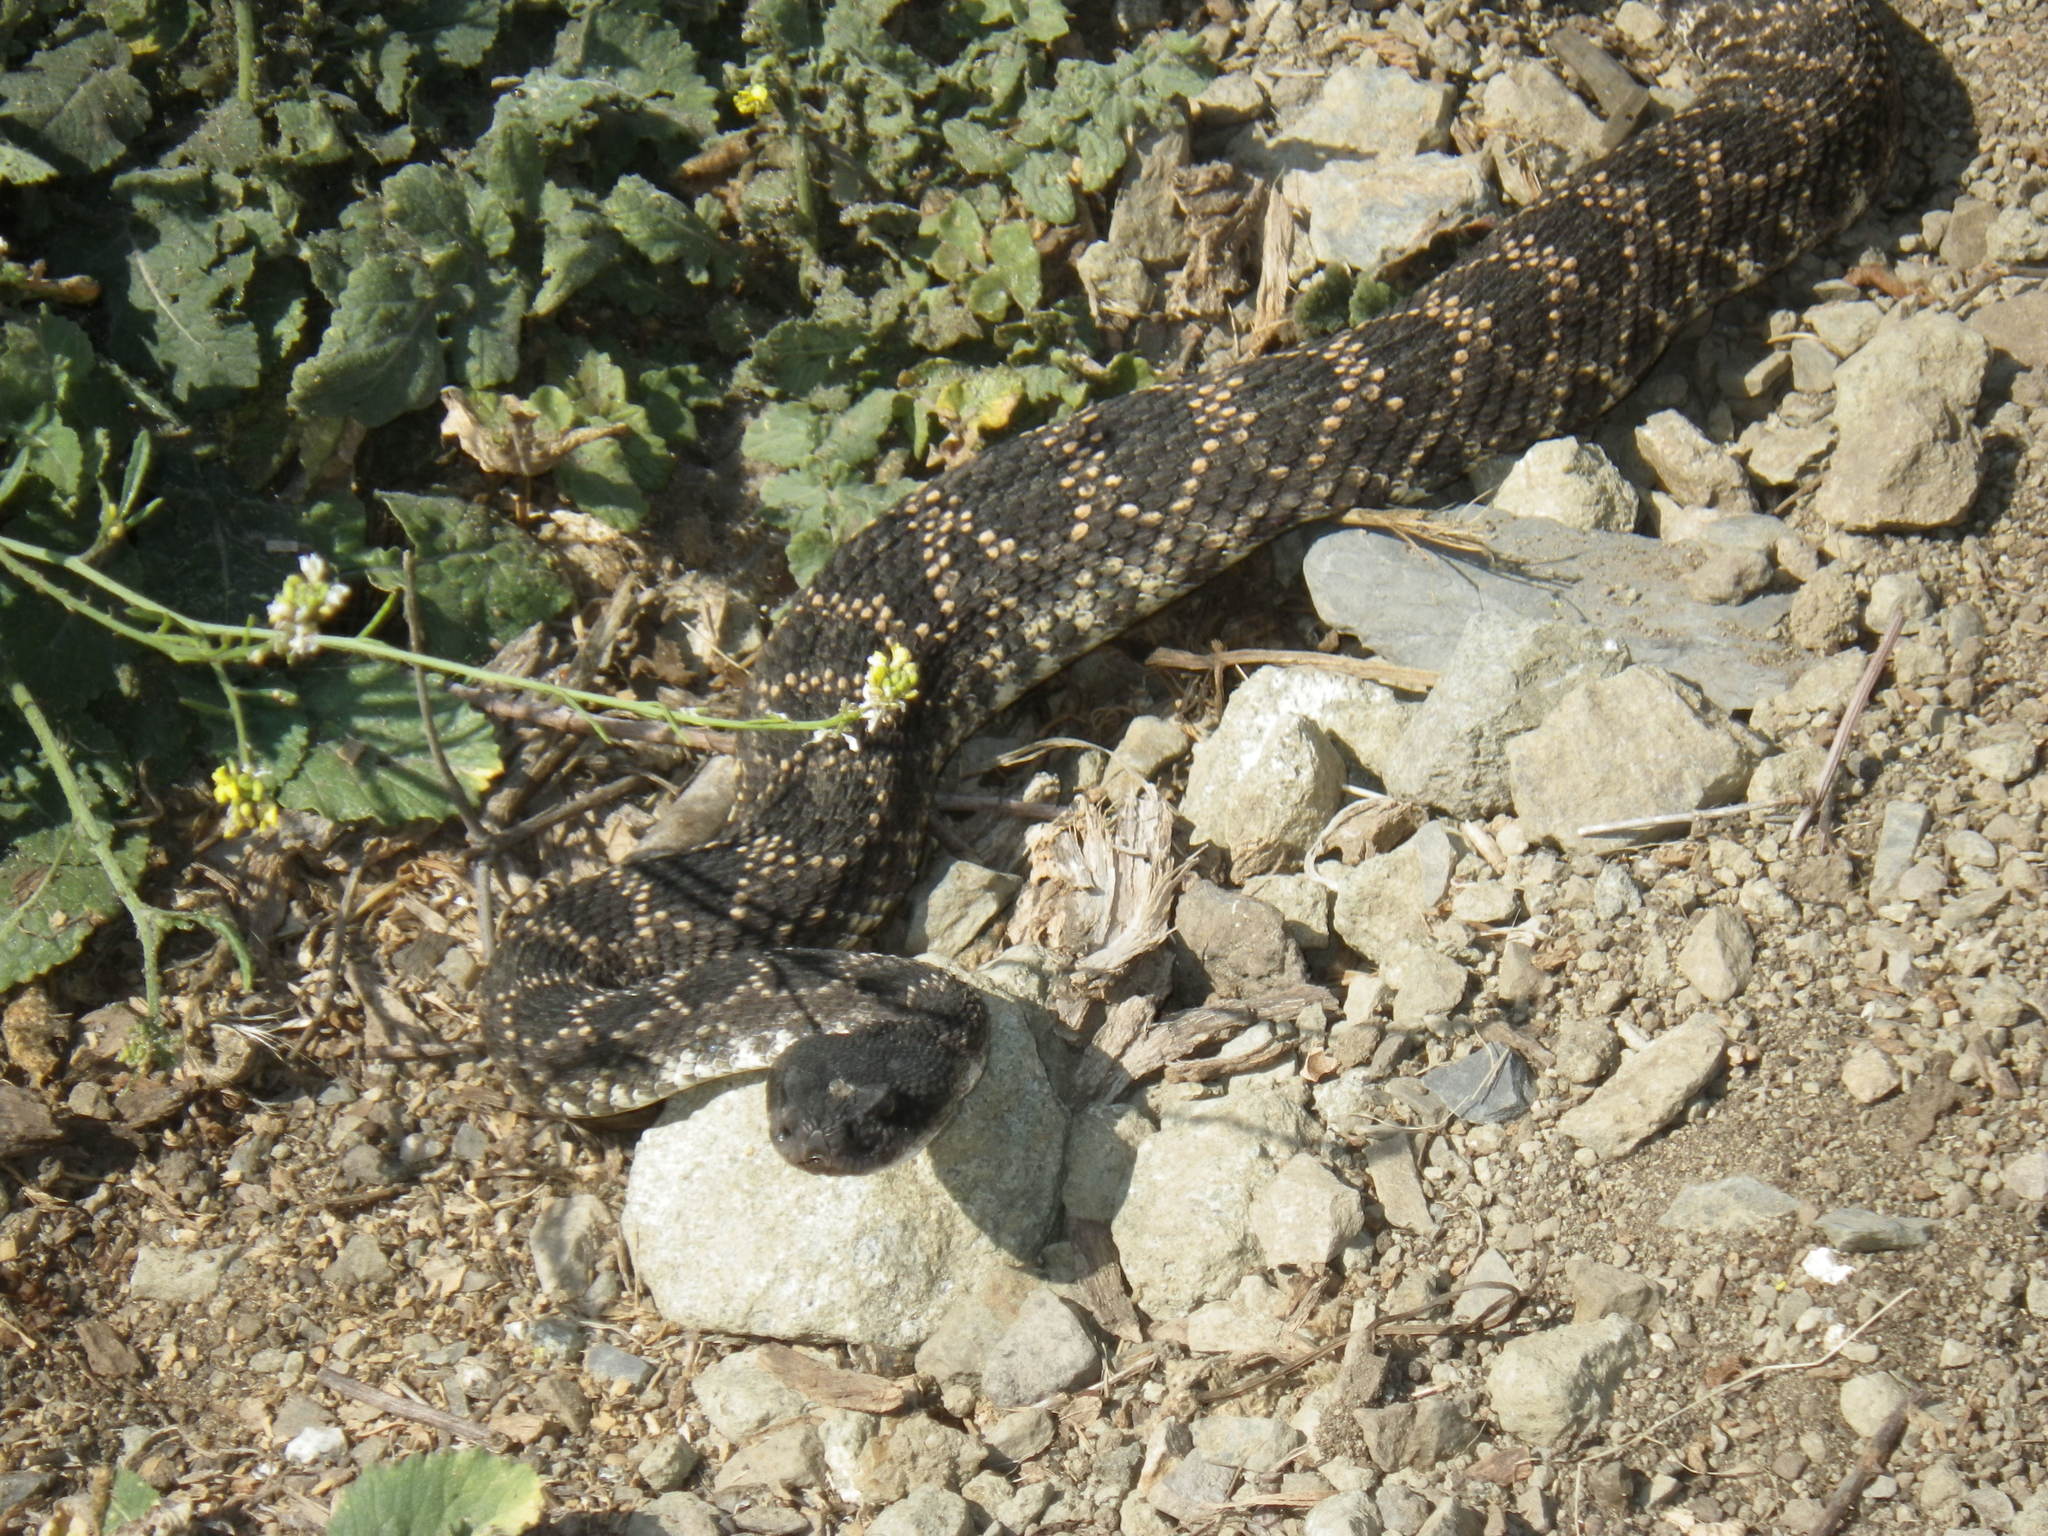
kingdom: Animalia
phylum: Chordata
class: Squamata
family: Viperidae
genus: Crotalus
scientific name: Crotalus oreganus
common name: Abyssus
